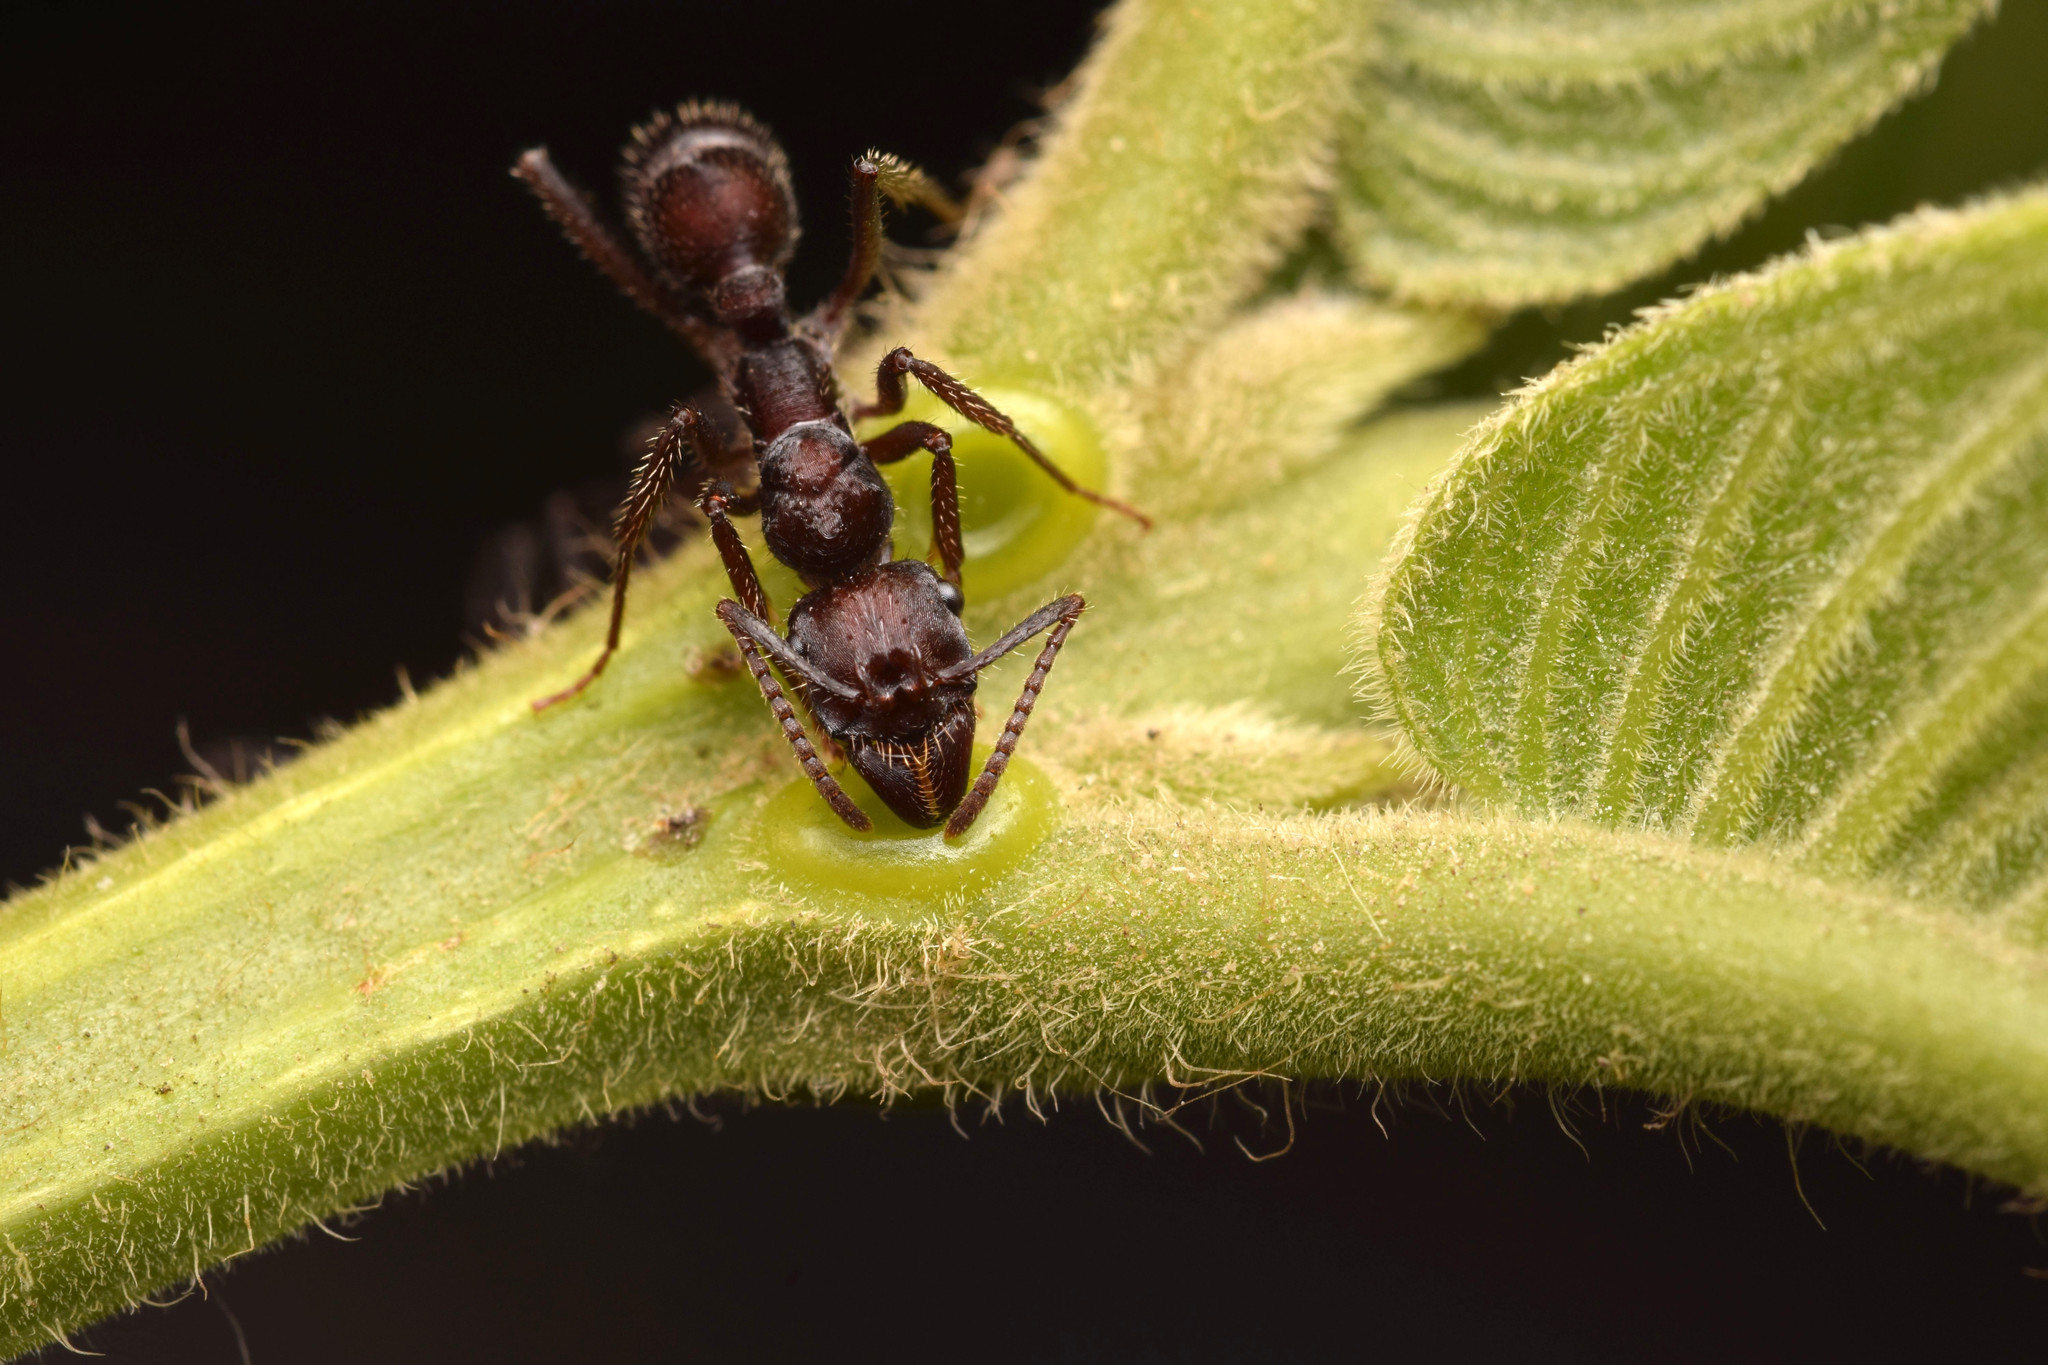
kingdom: Animalia
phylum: Arthropoda
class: Insecta
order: Hymenoptera
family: Formicidae
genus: Ectatomma
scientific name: Ectatomma brunneum
